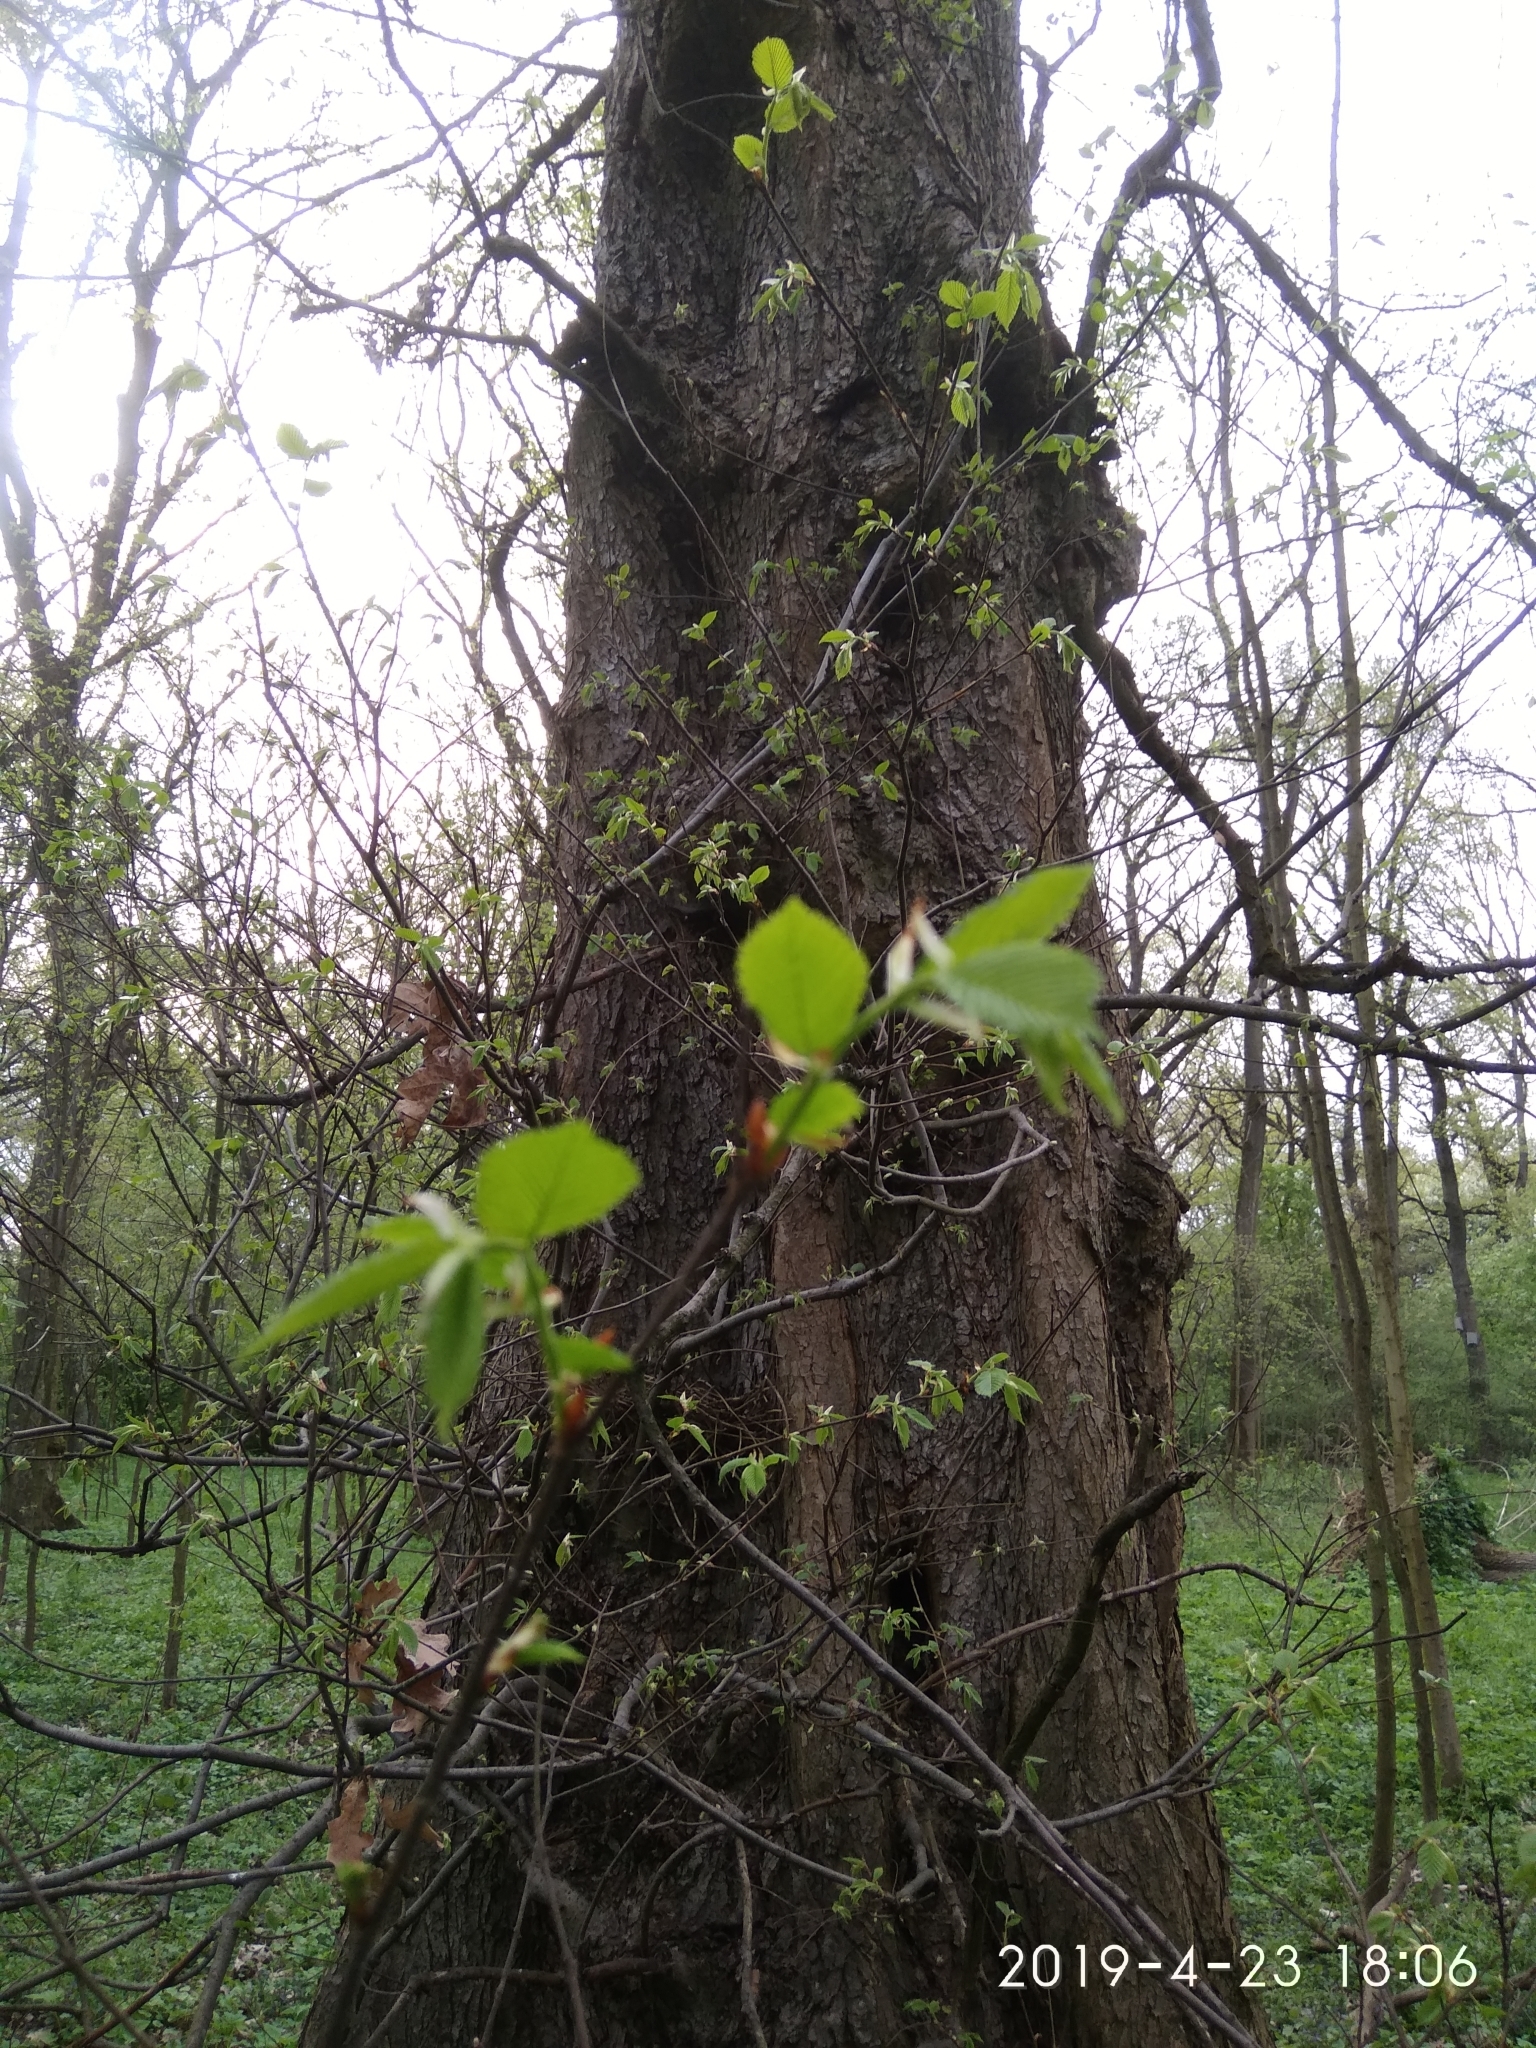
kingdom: Plantae
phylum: Tracheophyta
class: Magnoliopsida
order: Rosales
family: Ulmaceae
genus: Ulmus
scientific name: Ulmus laevis
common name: European white-elm
